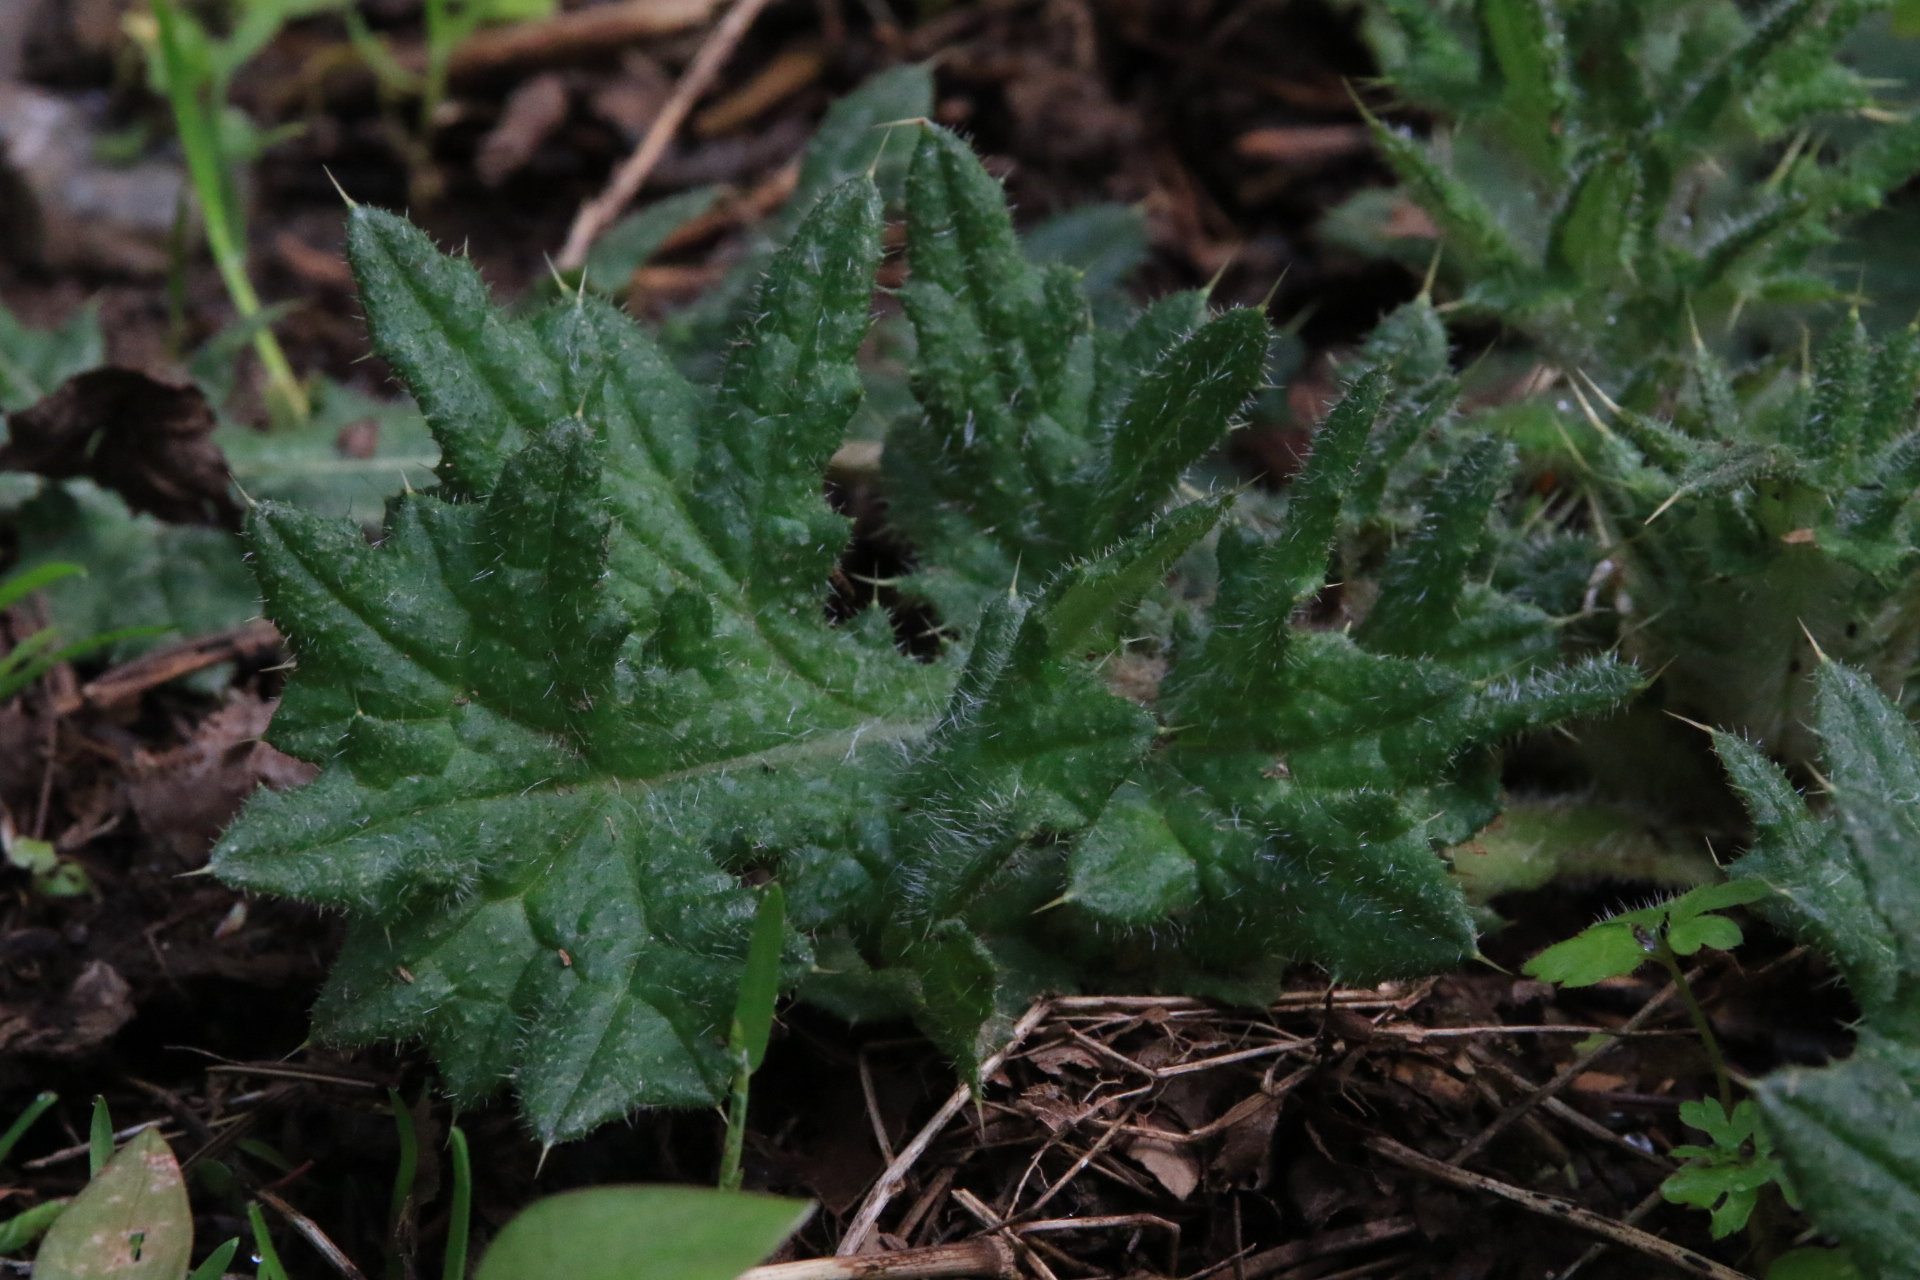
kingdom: Plantae
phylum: Tracheophyta
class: Magnoliopsida
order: Asterales
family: Asteraceae
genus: Cirsium
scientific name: Cirsium vulgare
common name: Bull thistle
